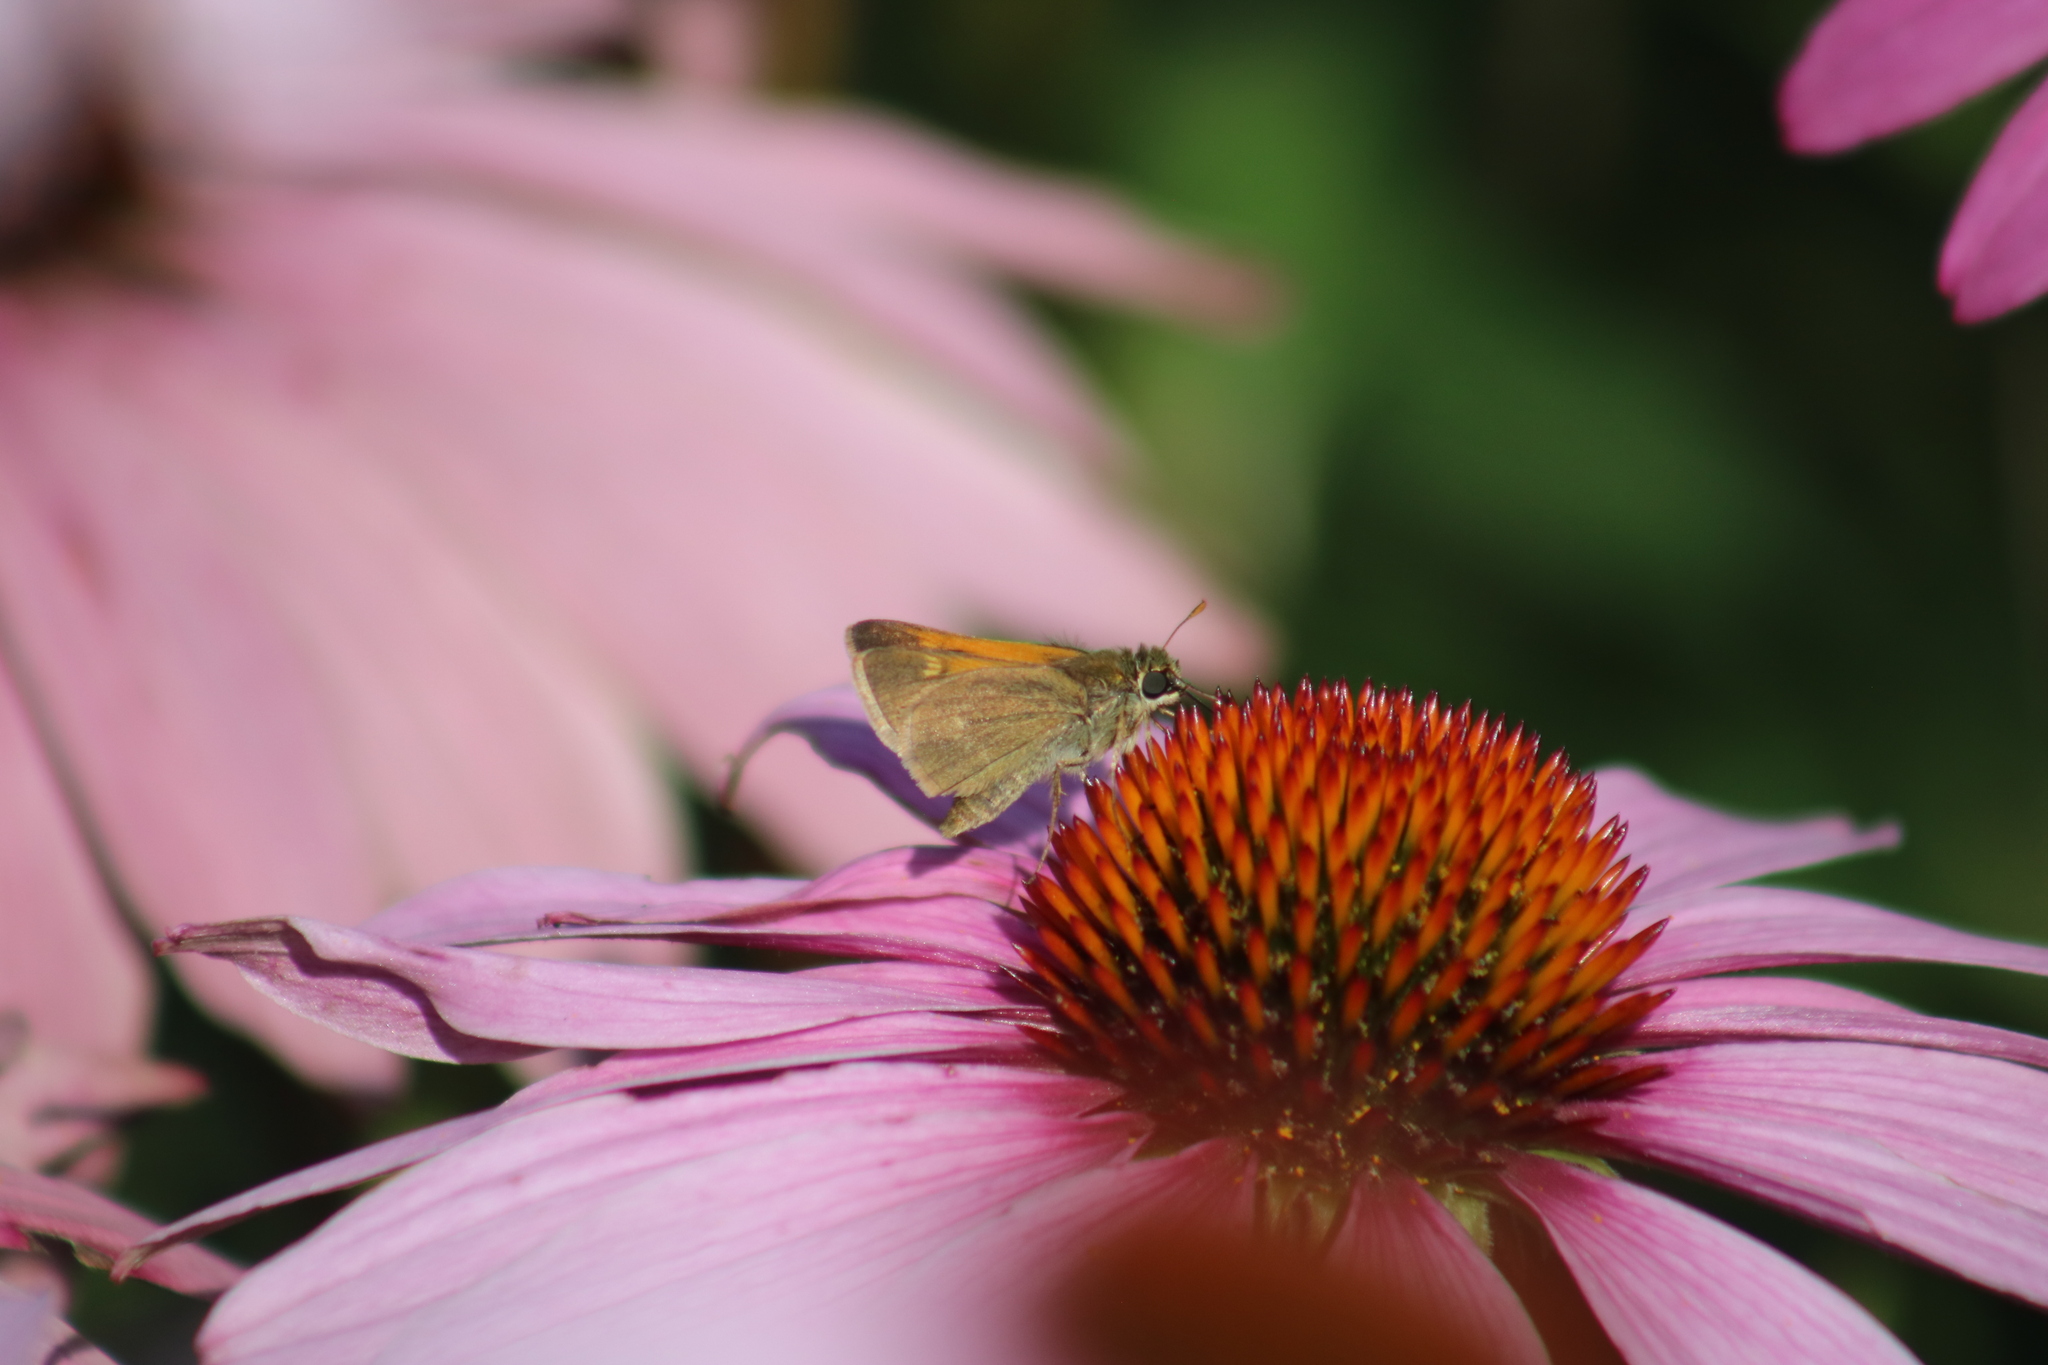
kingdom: Animalia
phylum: Arthropoda
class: Insecta
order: Lepidoptera
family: Hesperiidae
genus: Polites
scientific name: Polites themistocles
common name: Tawny-edged skipper
